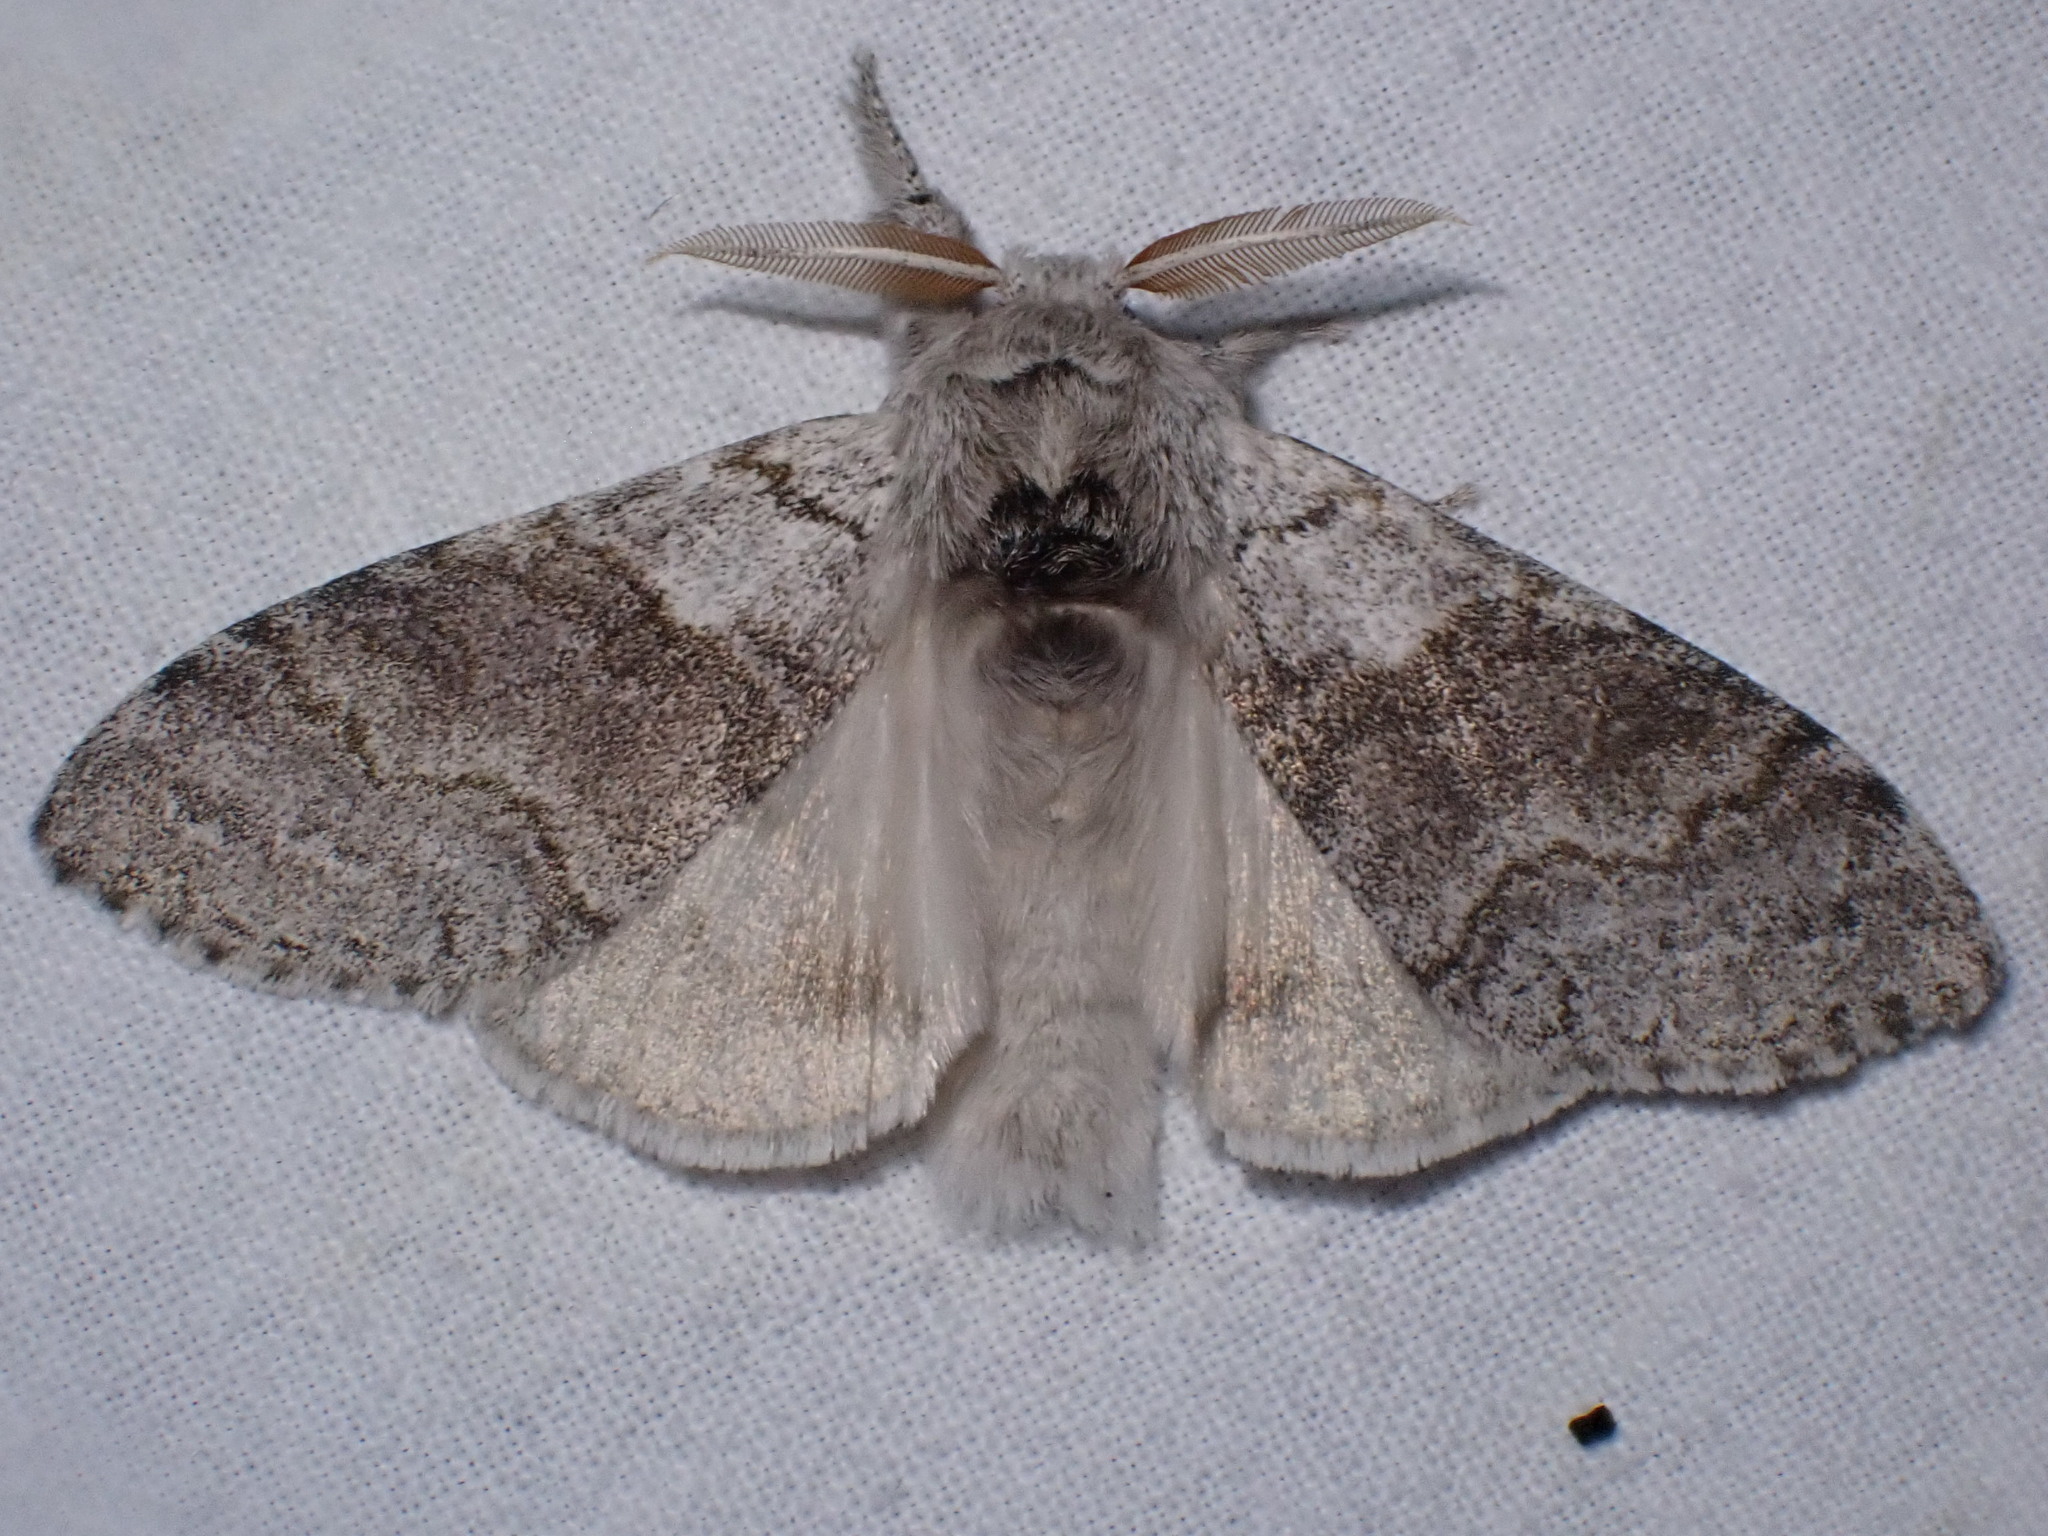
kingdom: Animalia
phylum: Arthropoda
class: Insecta
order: Lepidoptera
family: Erebidae
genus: Calliteara
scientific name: Calliteara pudibunda
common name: Pale tussock
